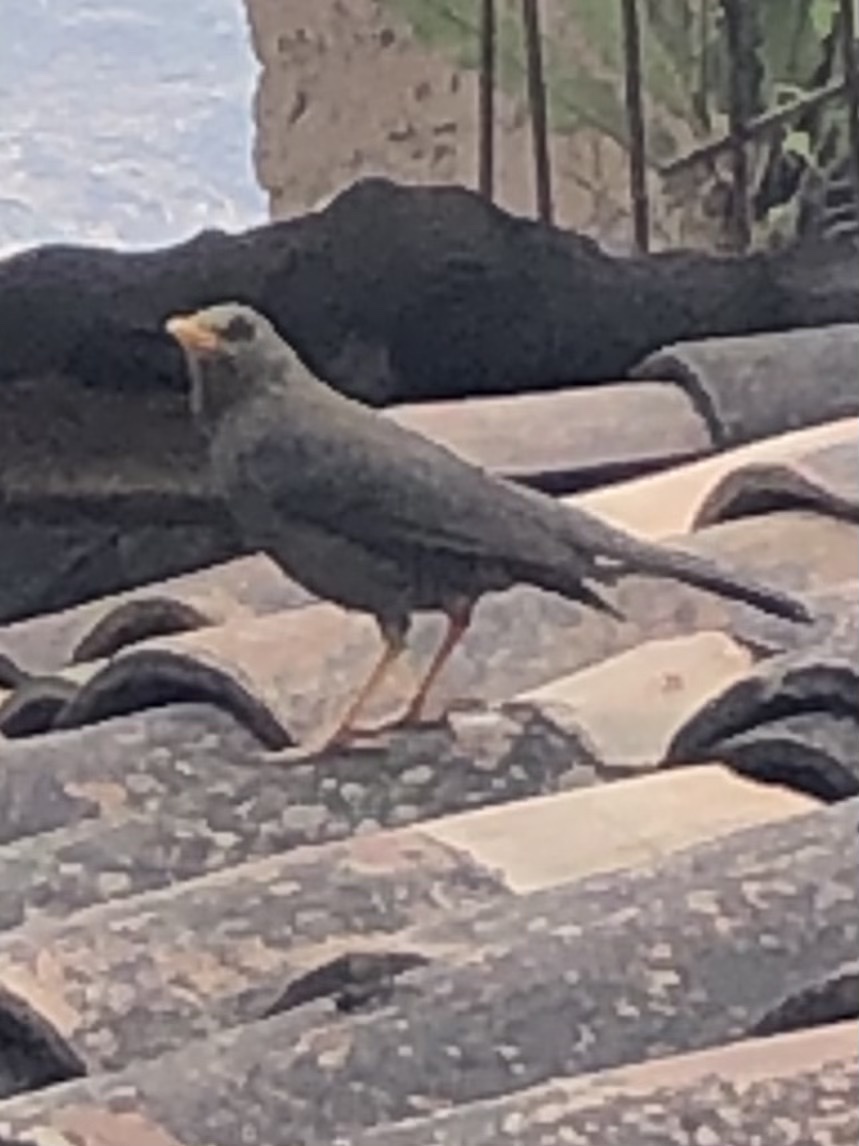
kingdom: Animalia
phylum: Chordata
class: Aves
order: Passeriformes
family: Turdidae
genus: Turdus
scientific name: Turdus chiguanco
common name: Chiguanco thrush
